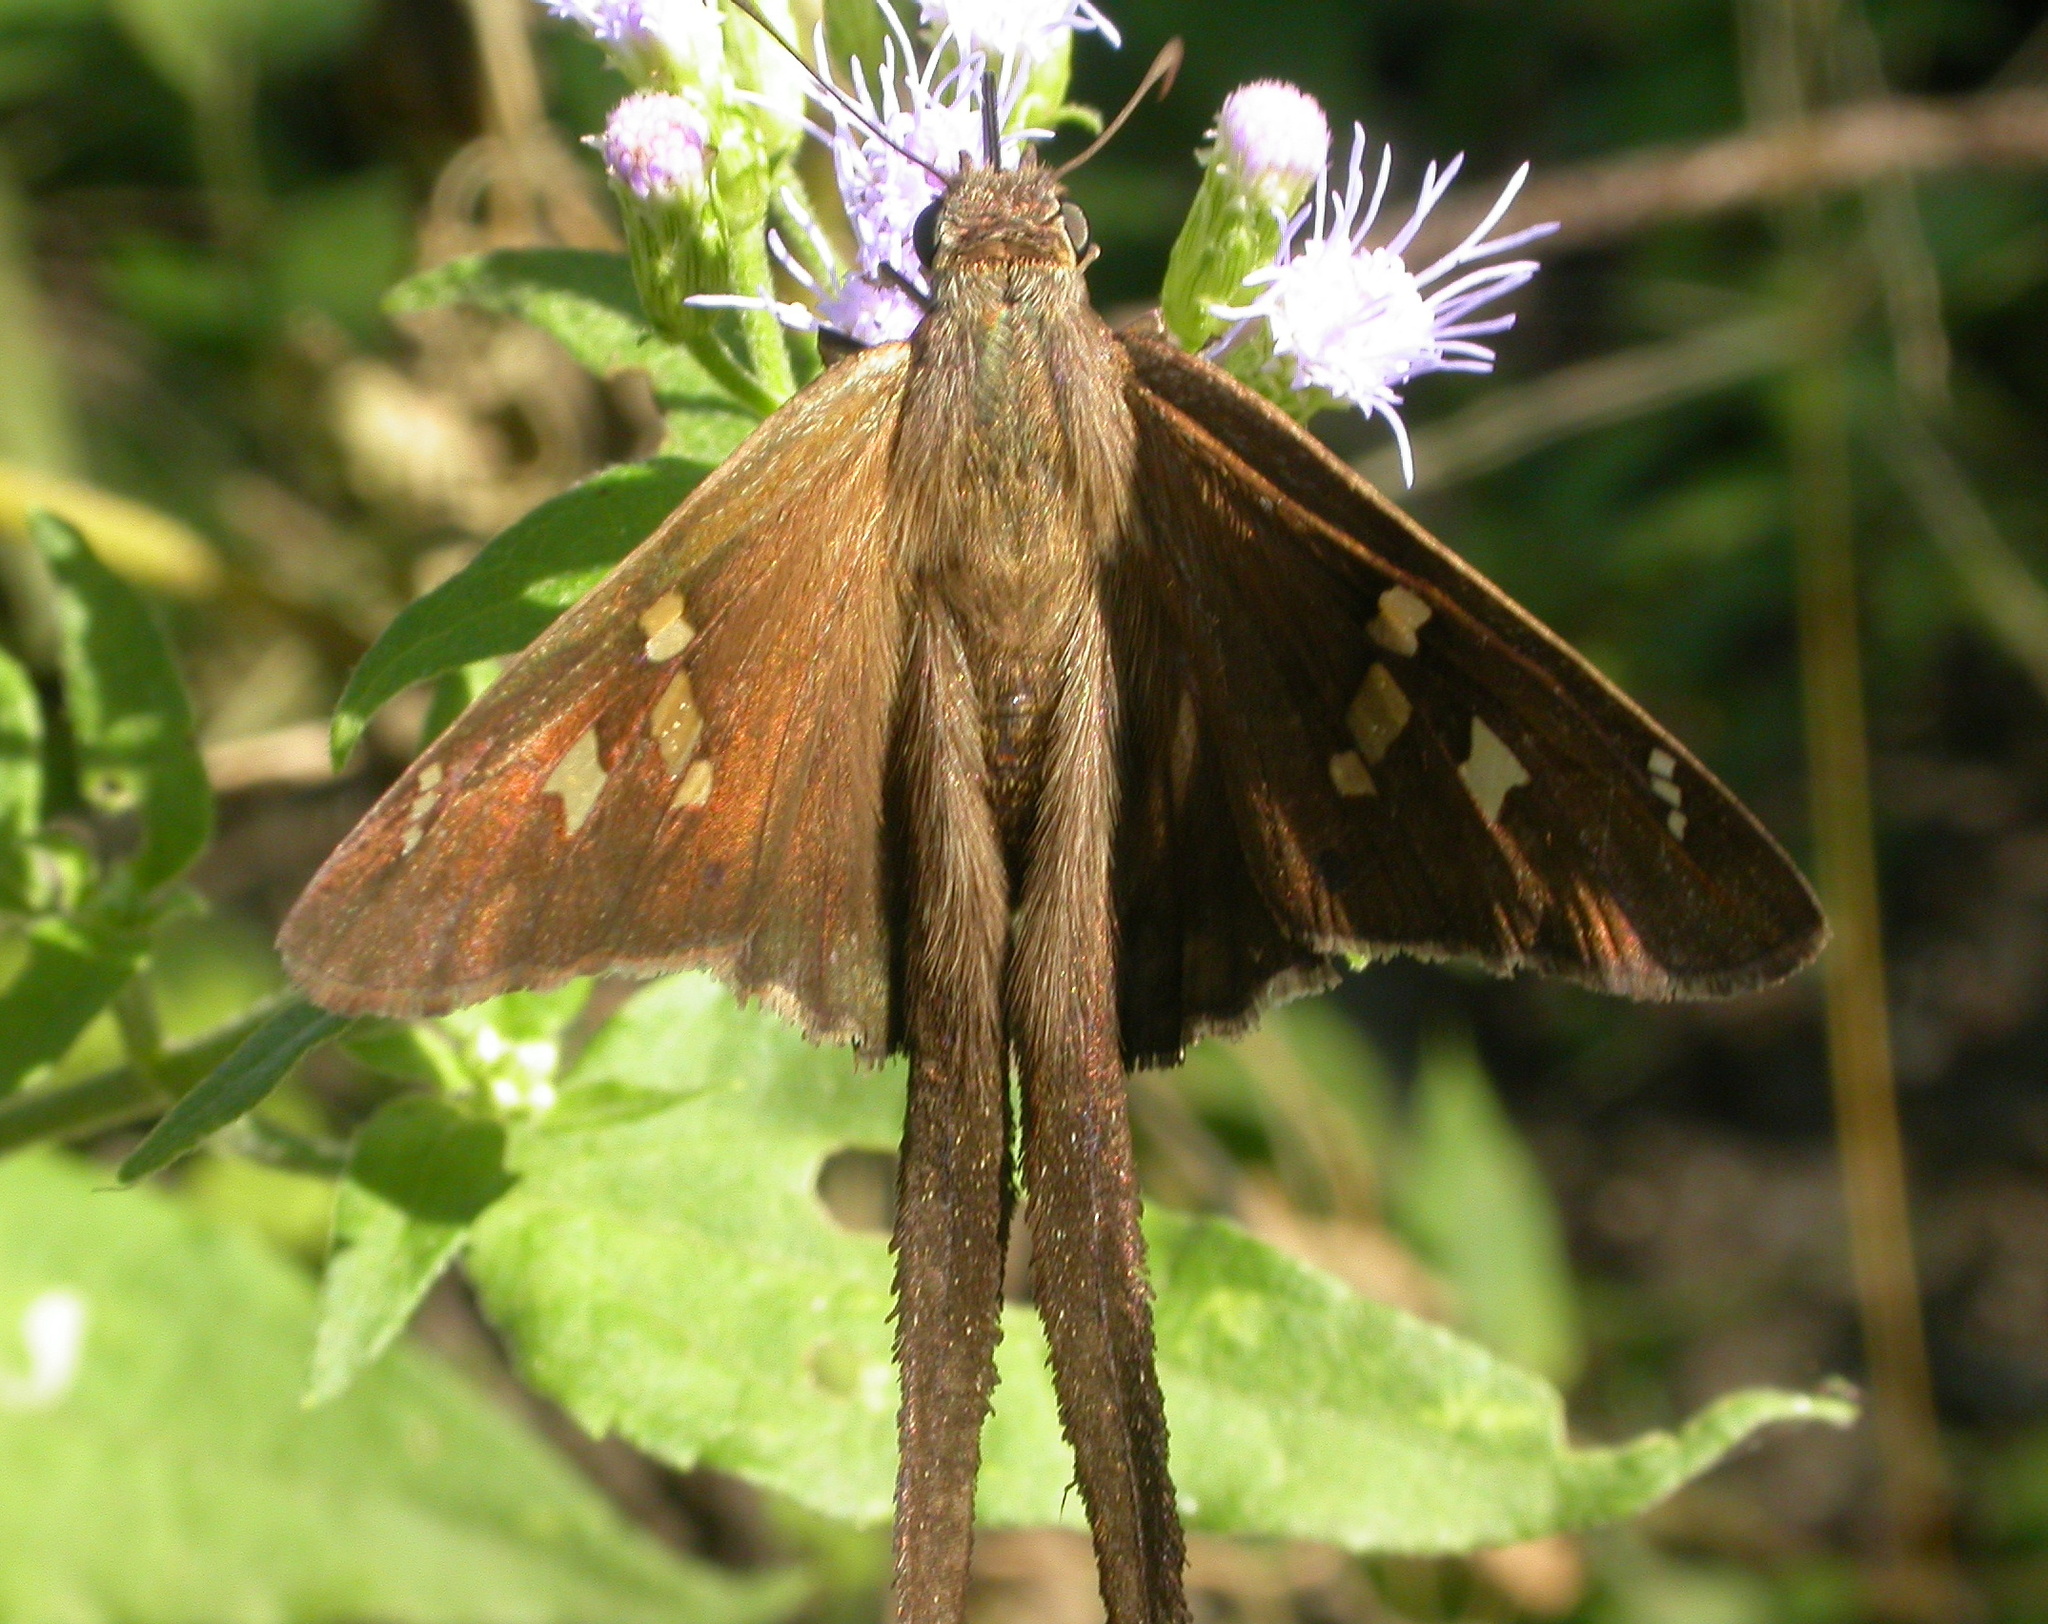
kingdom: Animalia
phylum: Arthropoda
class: Insecta
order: Lepidoptera
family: Hesperiidae
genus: Chioides
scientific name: Chioides catillus
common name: Silverbanded skipper
